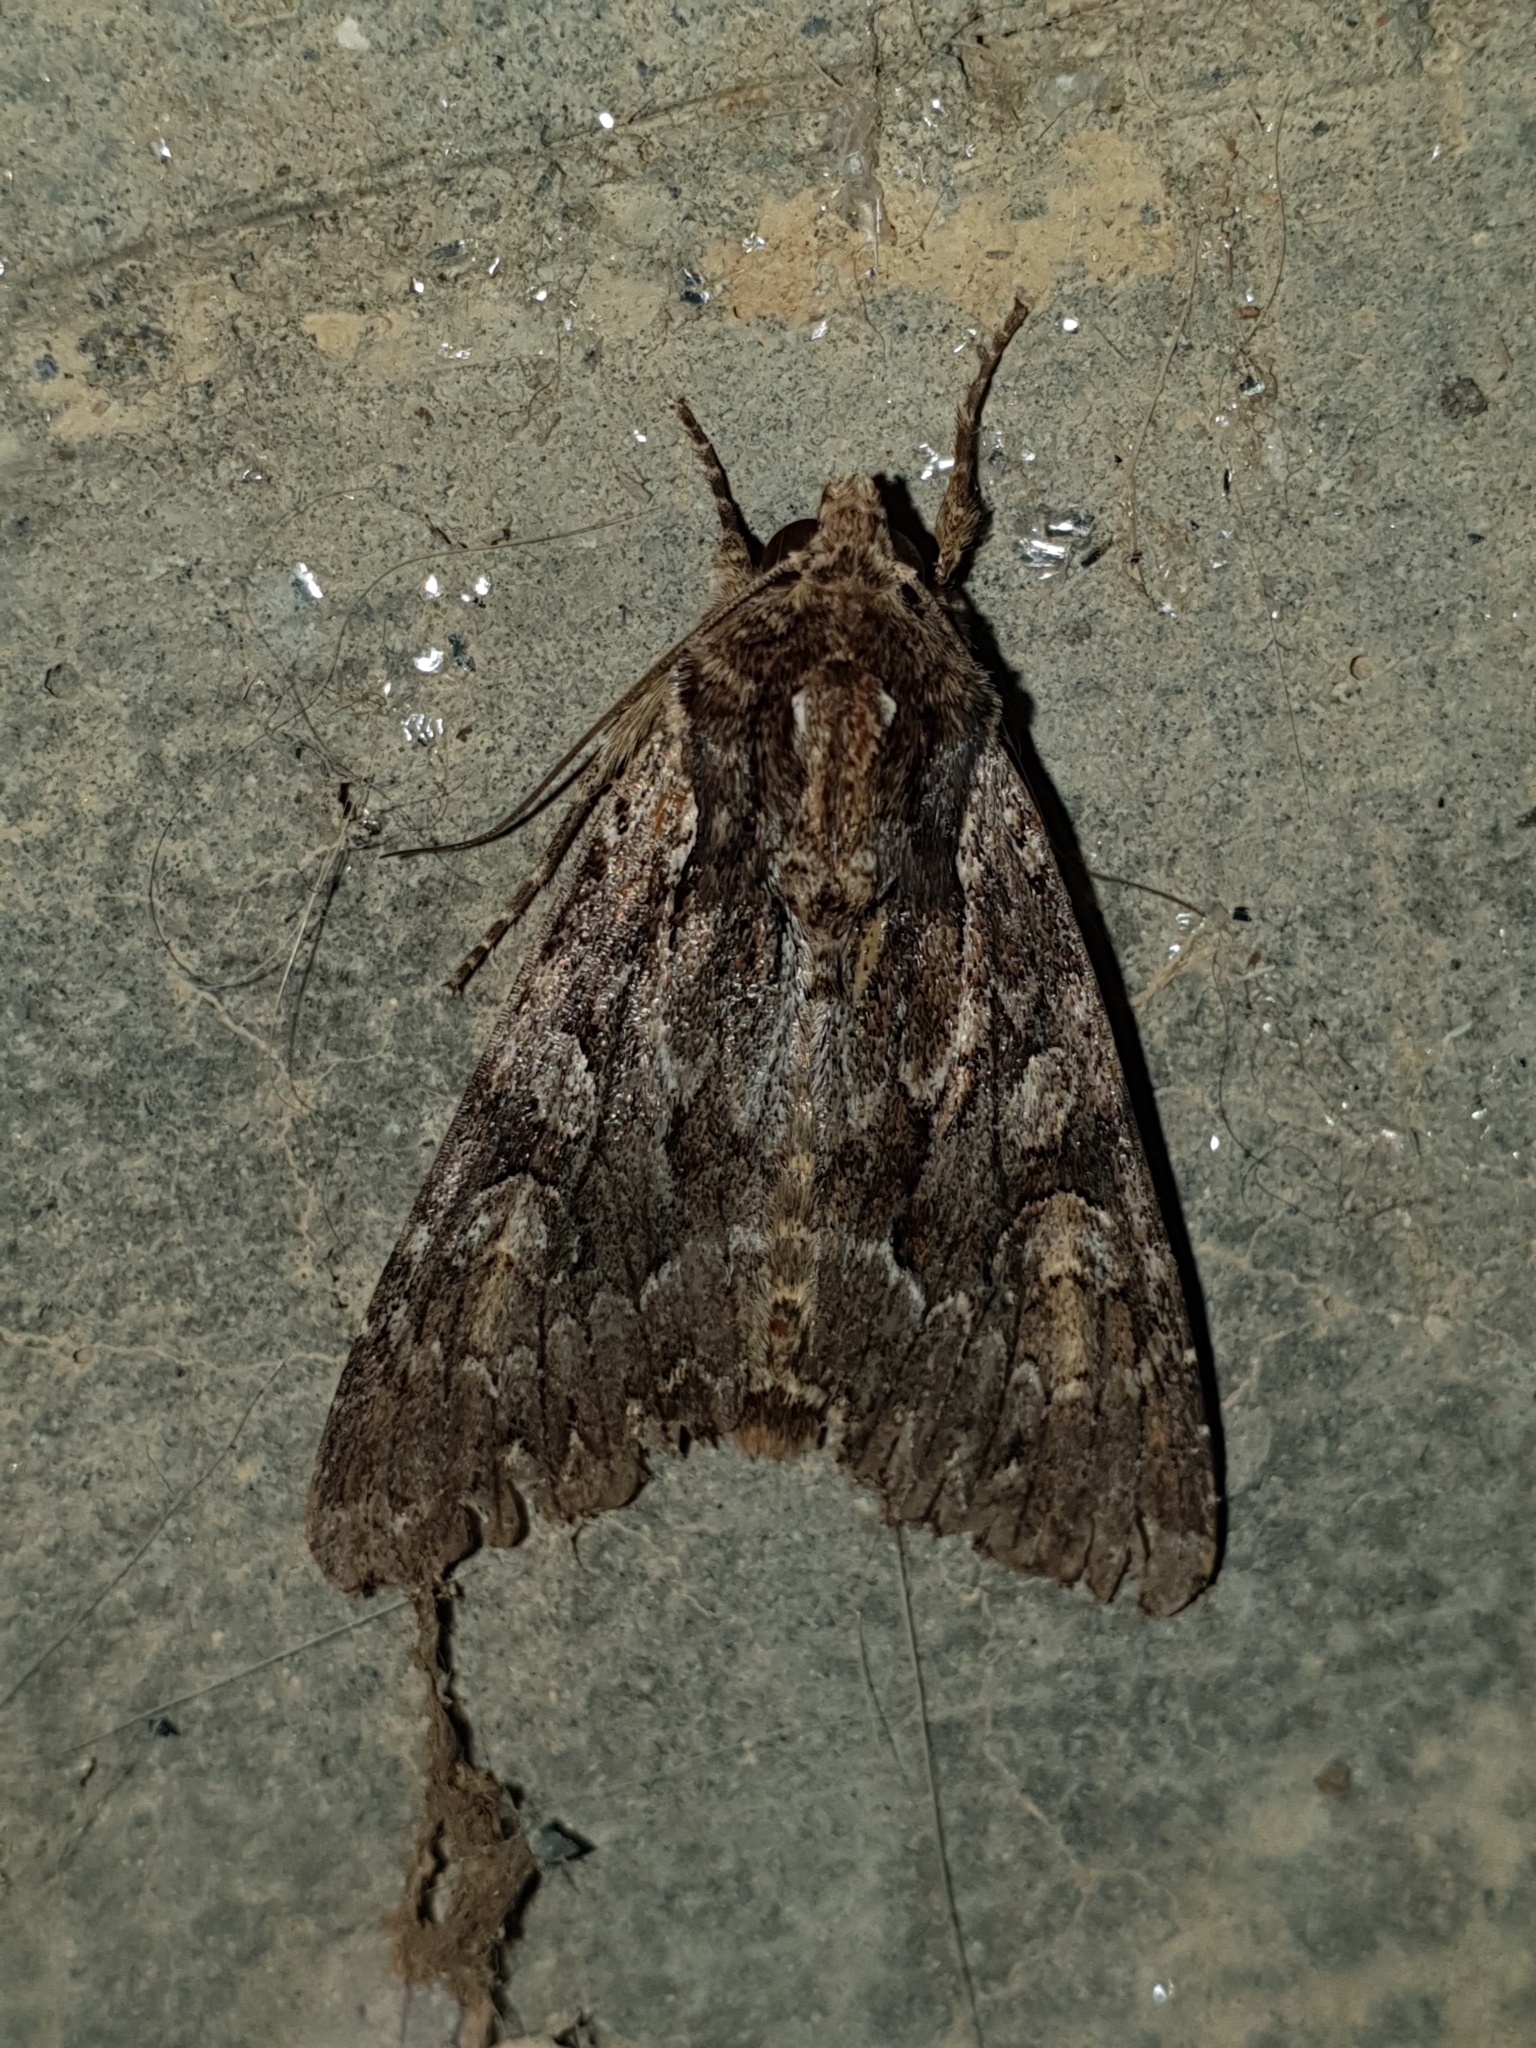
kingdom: Animalia
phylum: Arthropoda
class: Insecta
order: Lepidoptera
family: Noctuidae
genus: Apamea
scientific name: Apamea monoglypha
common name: Dark arches
